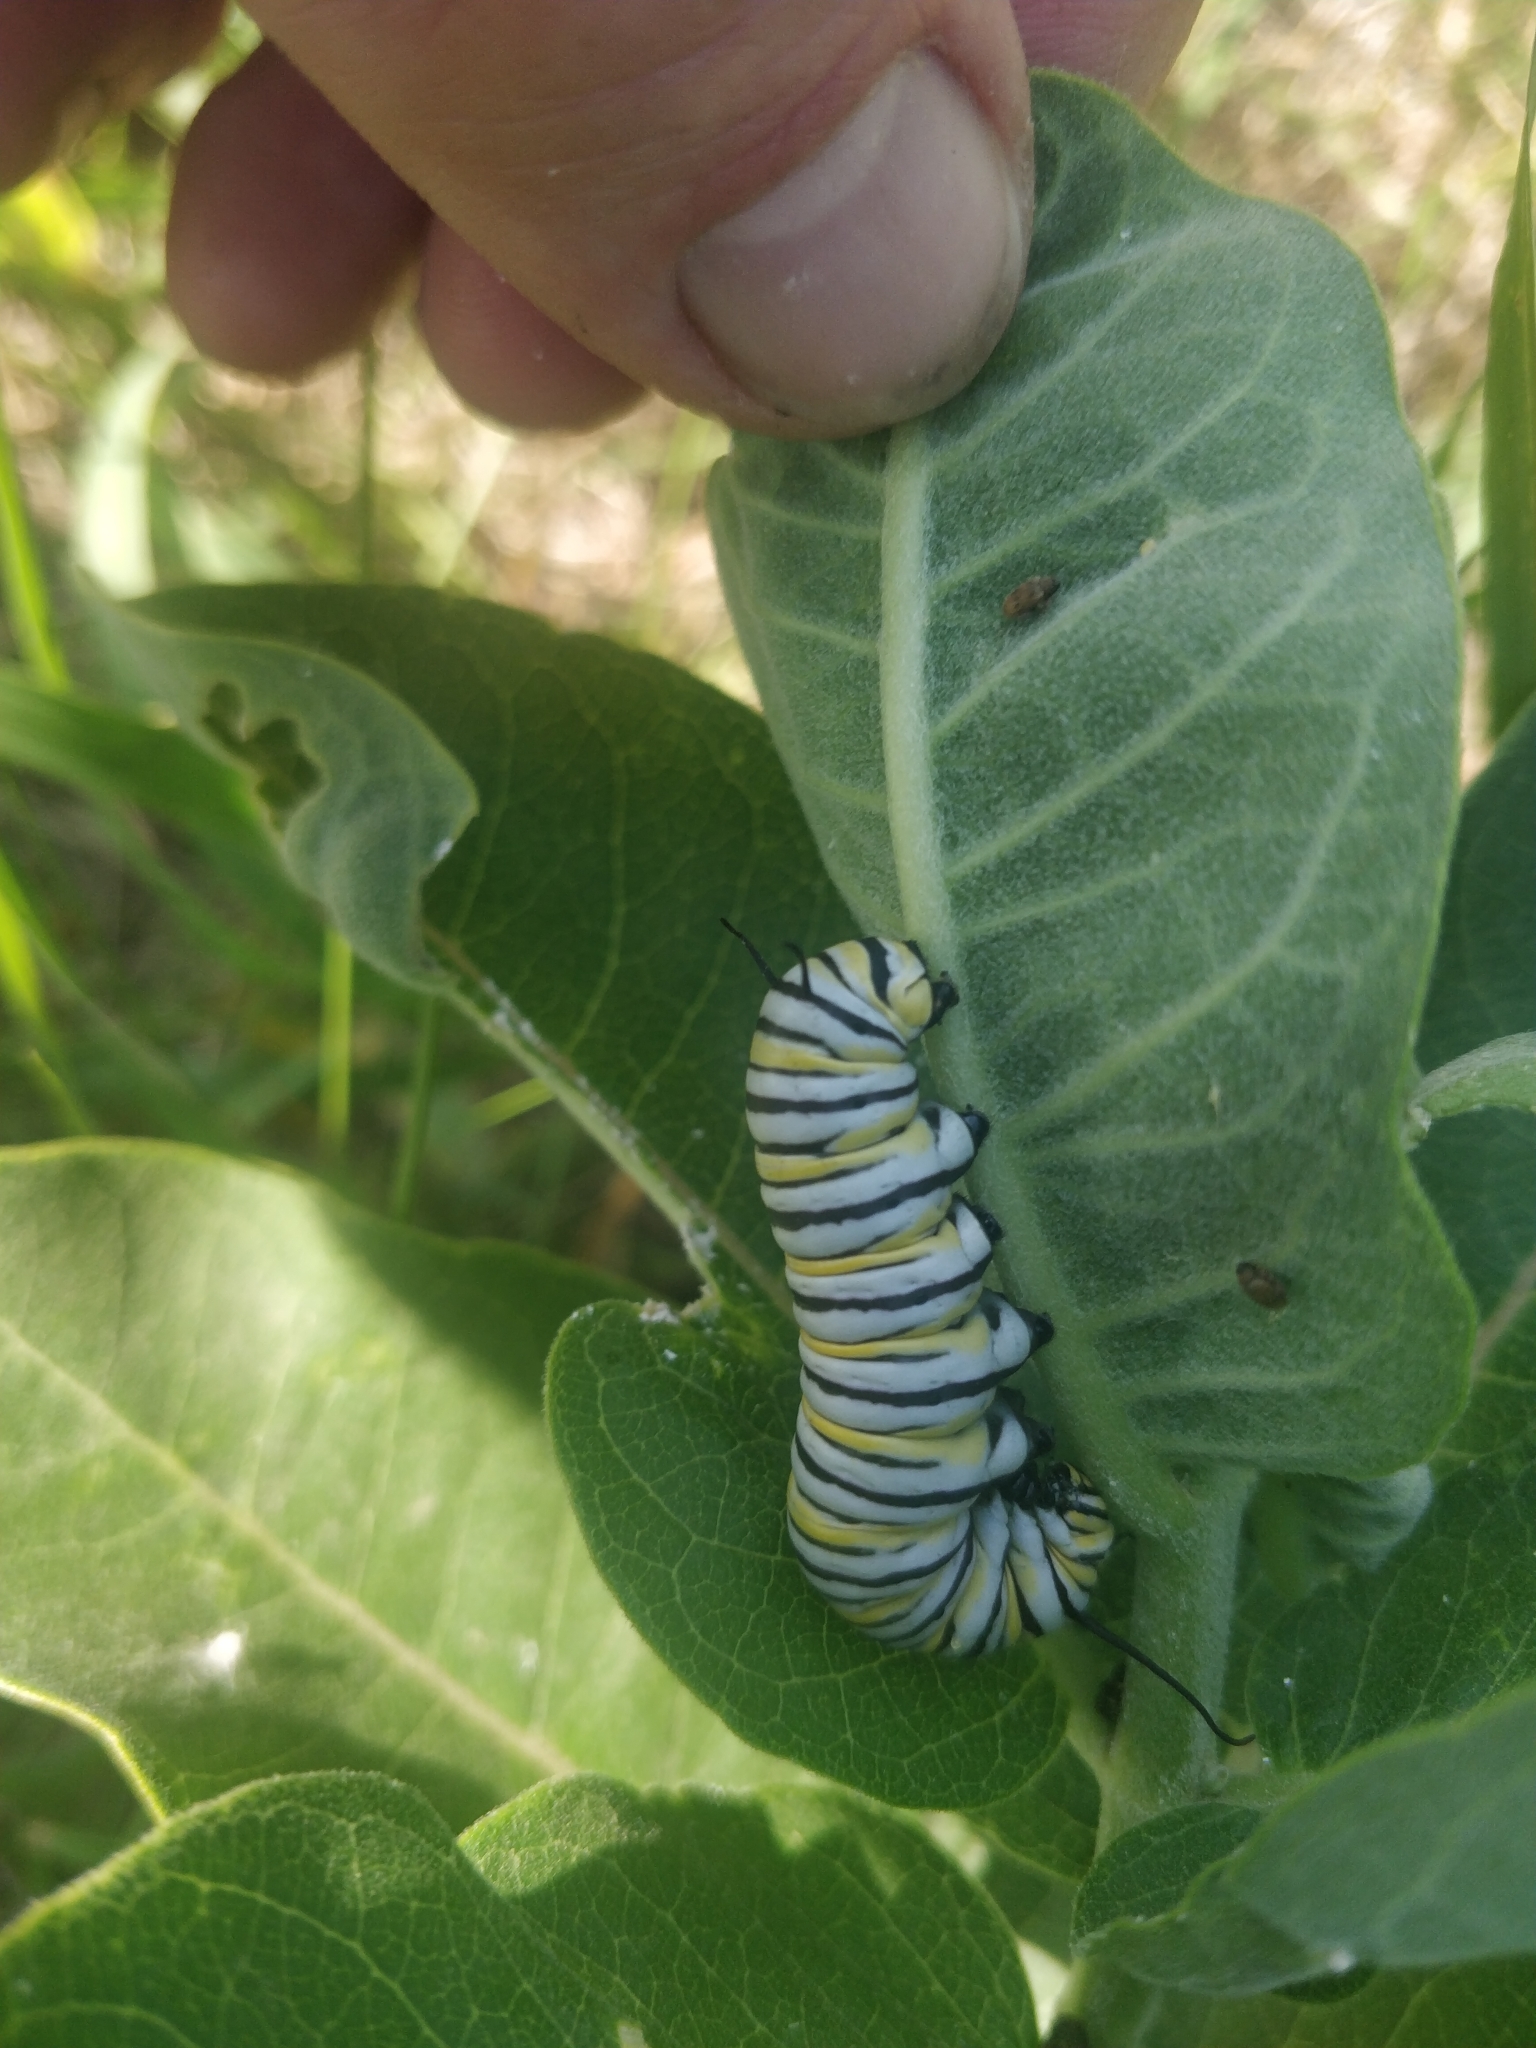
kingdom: Animalia
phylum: Arthropoda
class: Insecta
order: Lepidoptera
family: Nymphalidae
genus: Danaus
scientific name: Danaus plexippus
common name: Monarch
